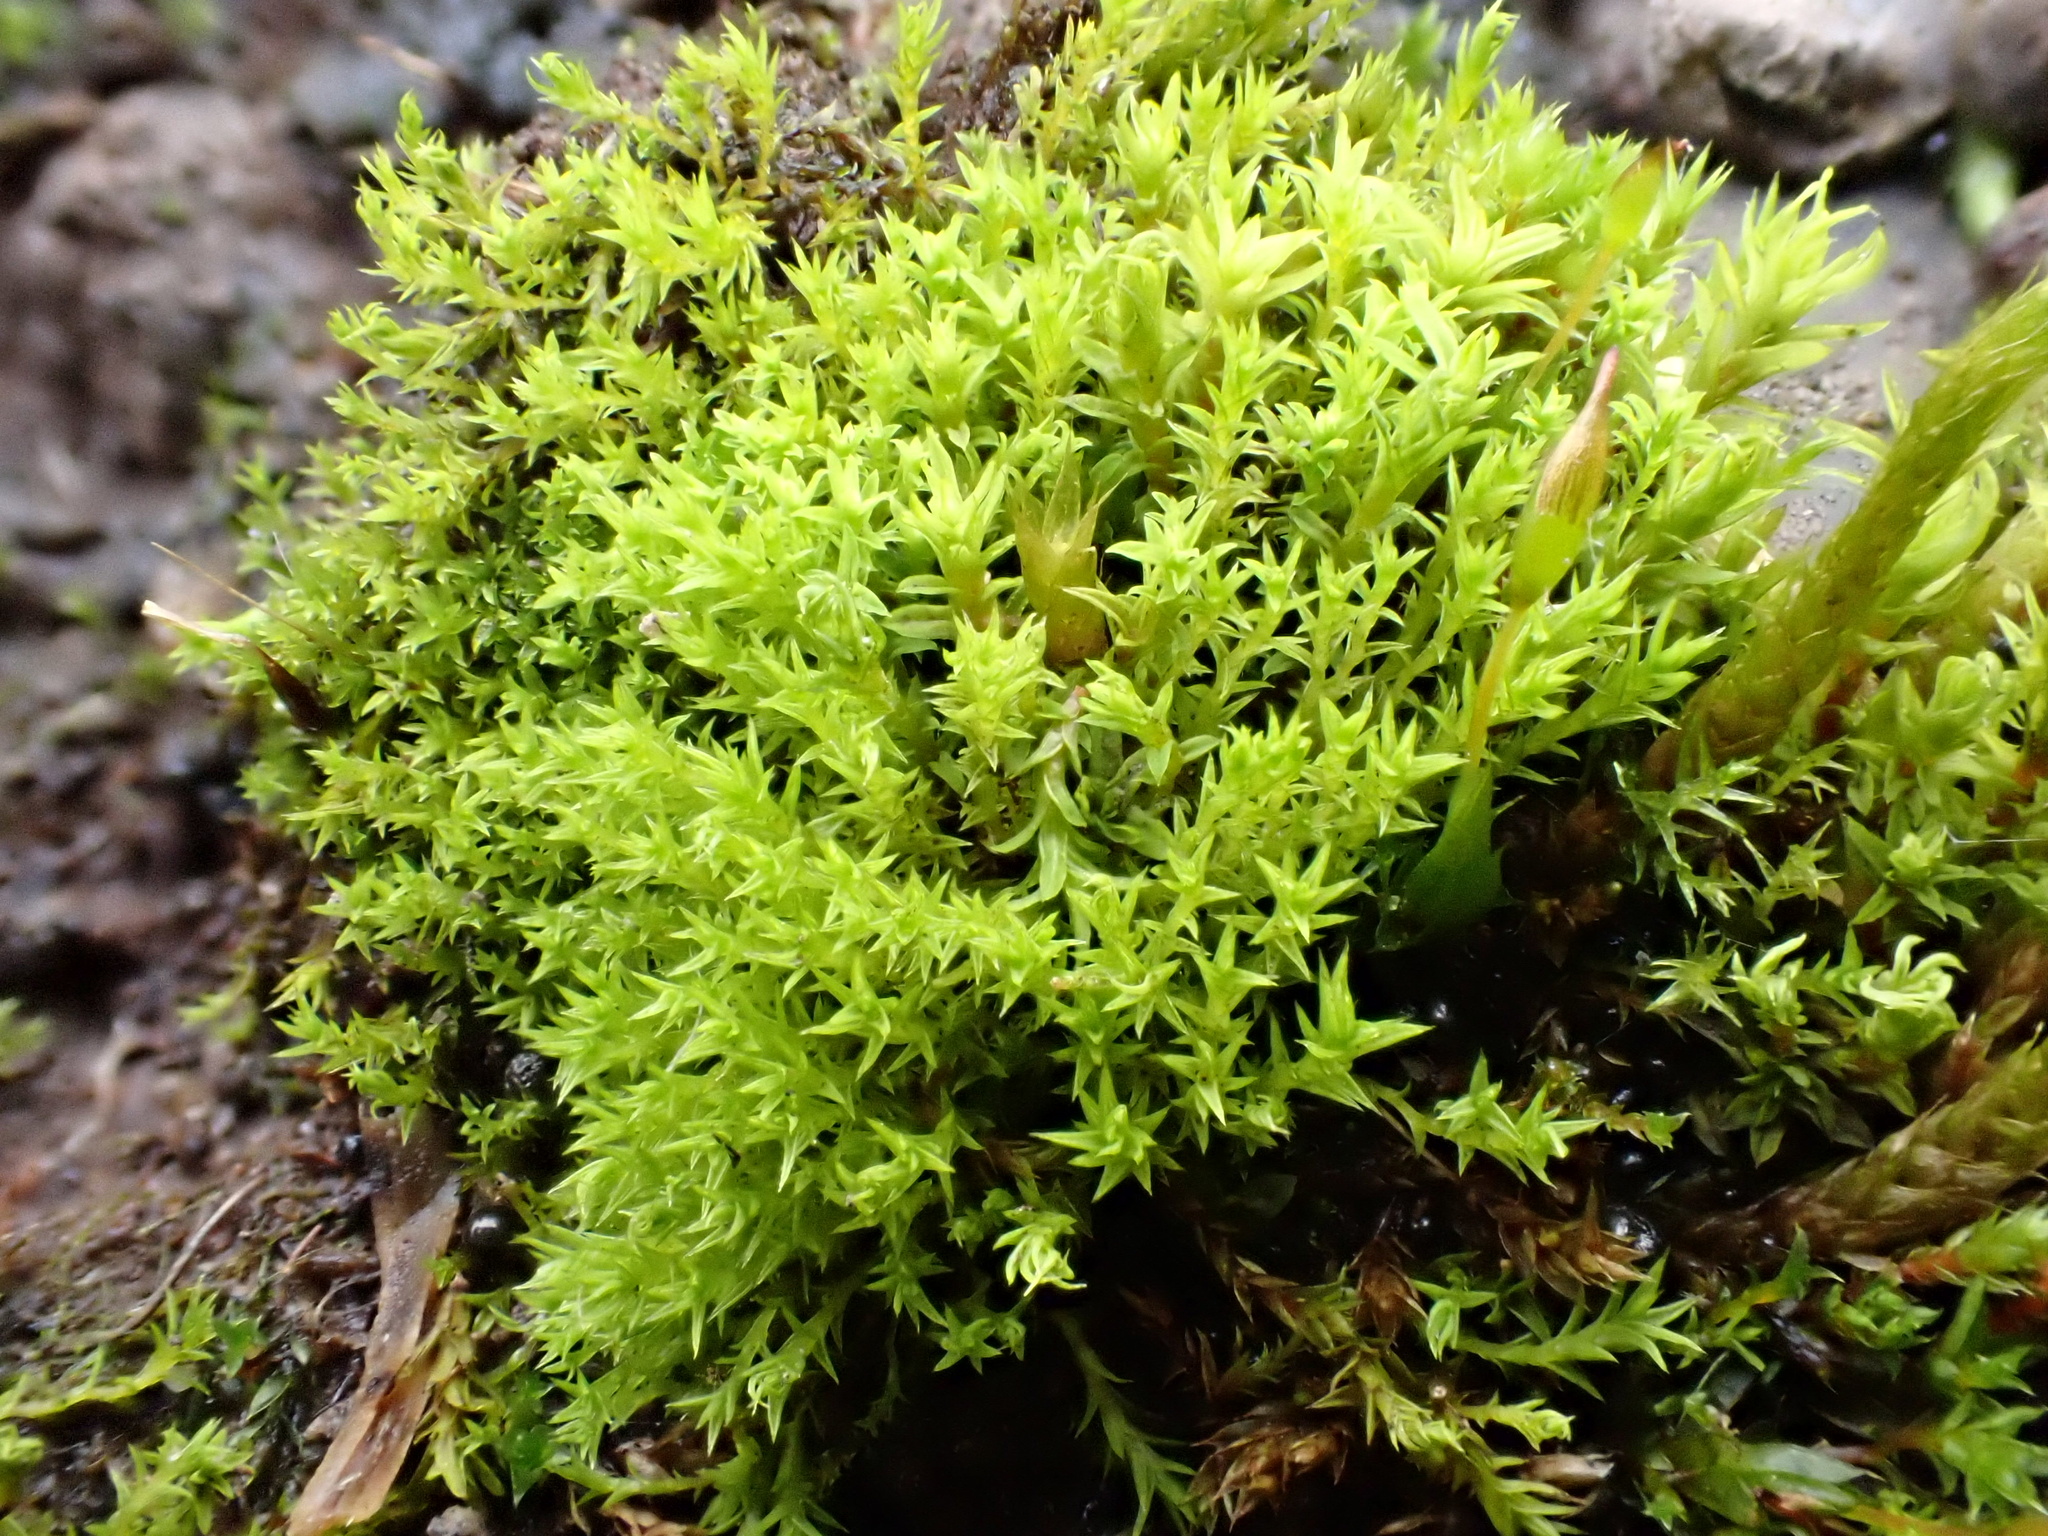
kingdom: Plantae
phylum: Bryophyta
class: Bryopsida
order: Pottiales
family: Pottiaceae
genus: Pseudocrossidium
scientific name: Pseudocrossidium hornschuchianum
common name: Hornschuch's beard-moss
